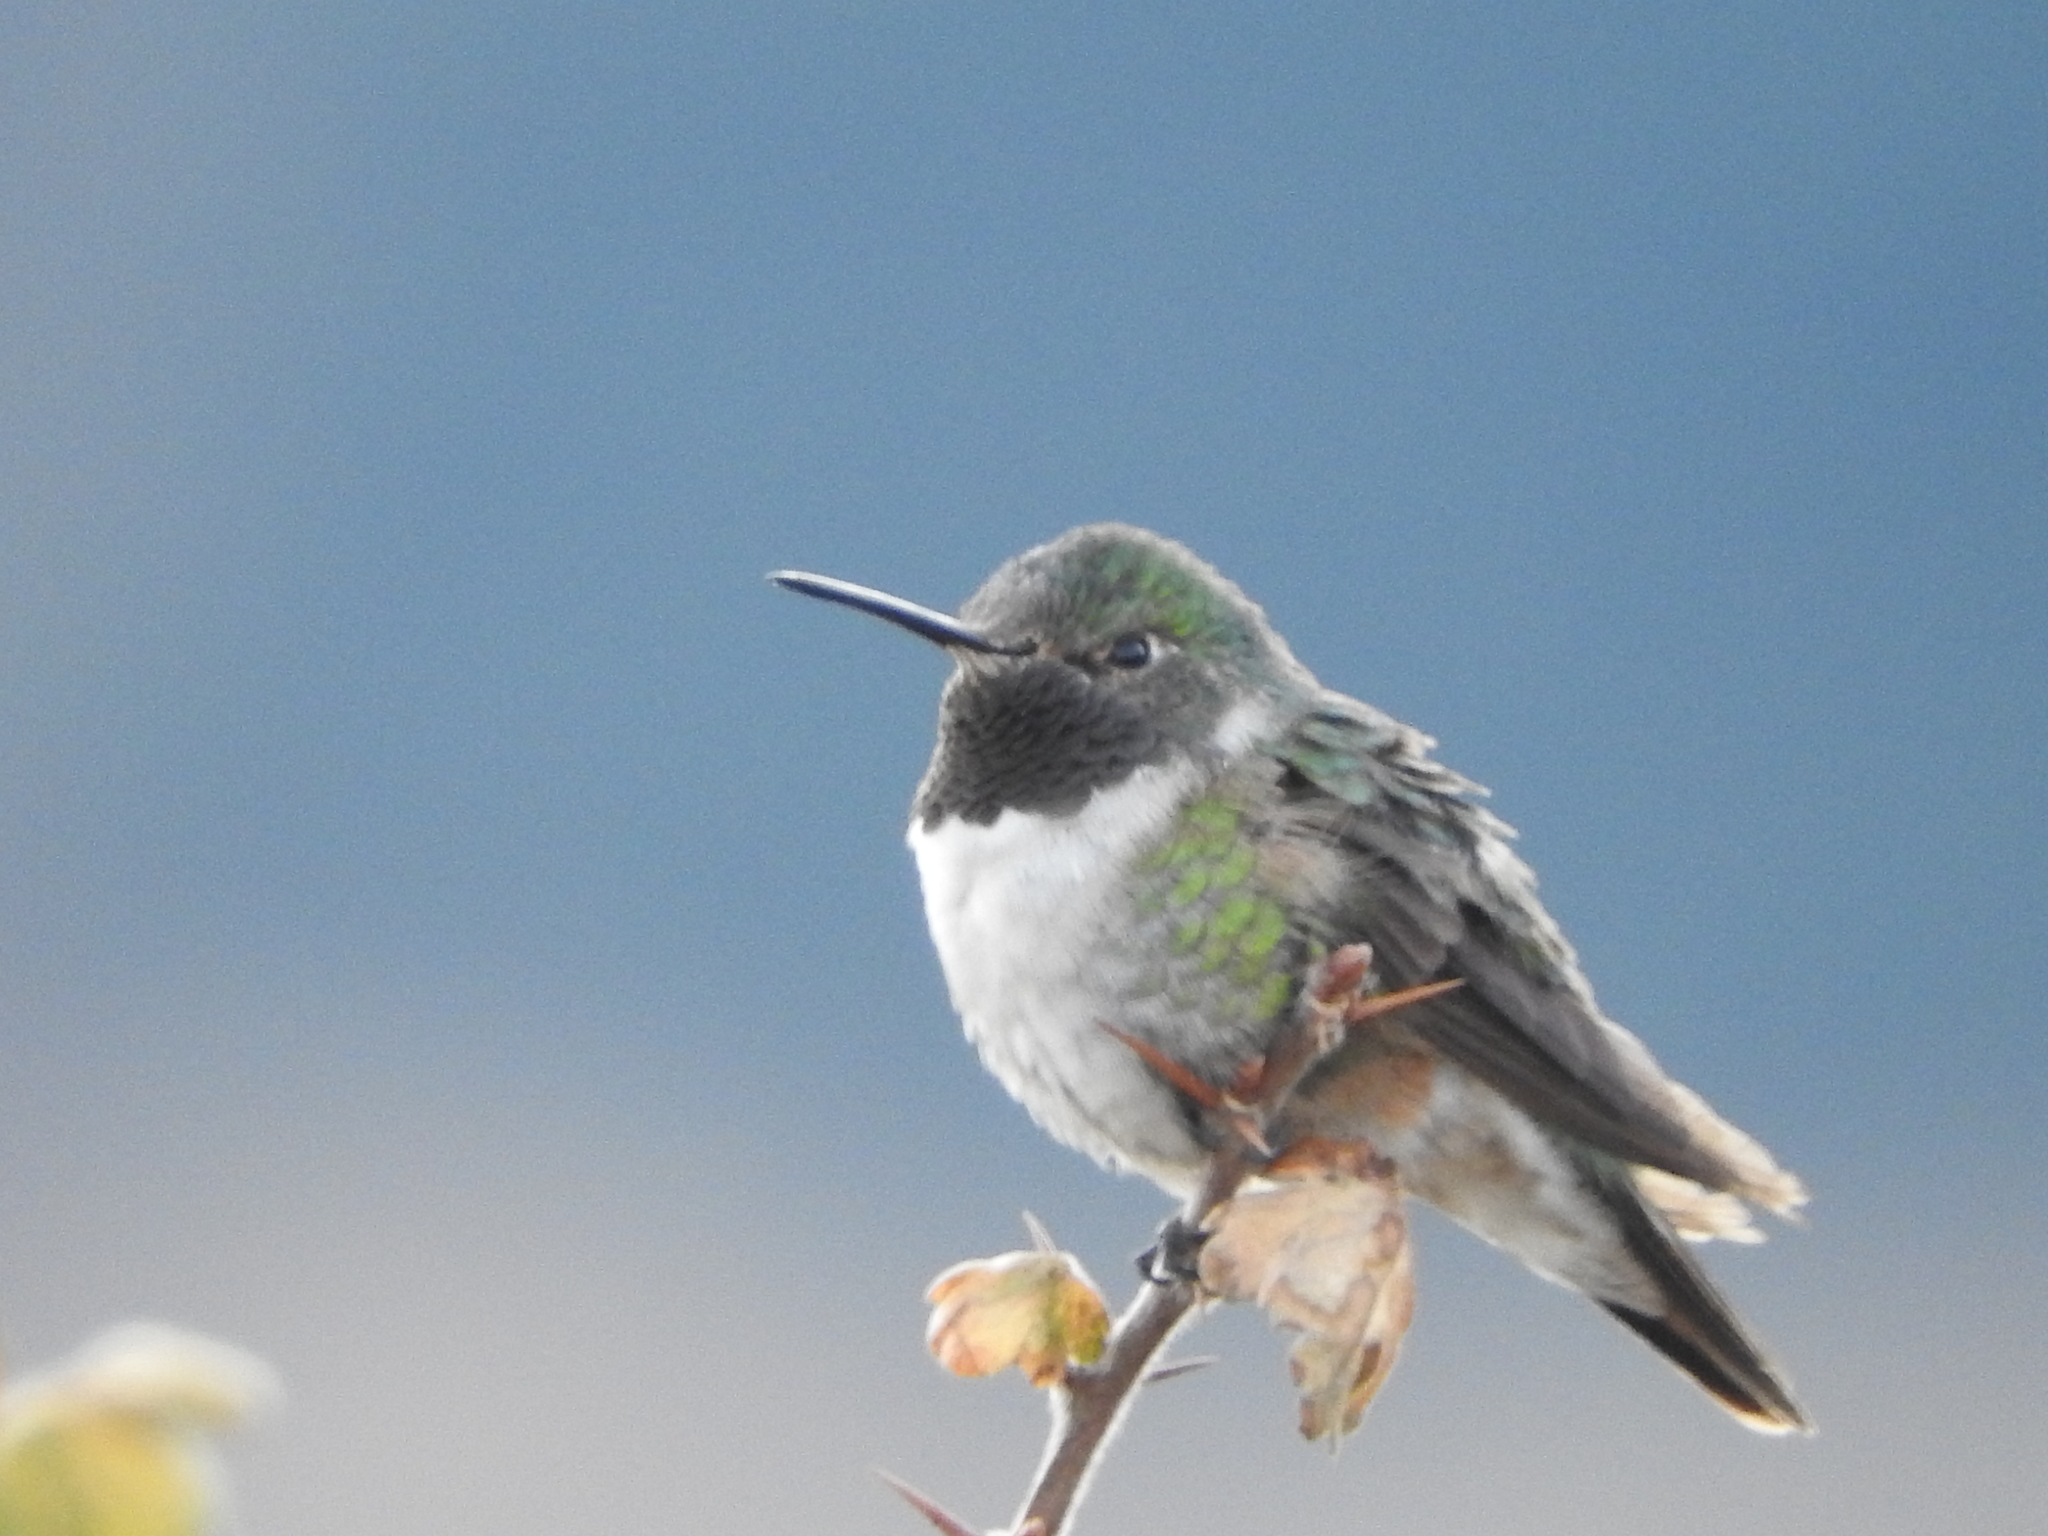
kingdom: Animalia
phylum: Chordata
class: Aves
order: Apodiformes
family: Trochilidae
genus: Selasphorus
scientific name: Selasphorus platycercus
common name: Broad-tailed hummingbird
